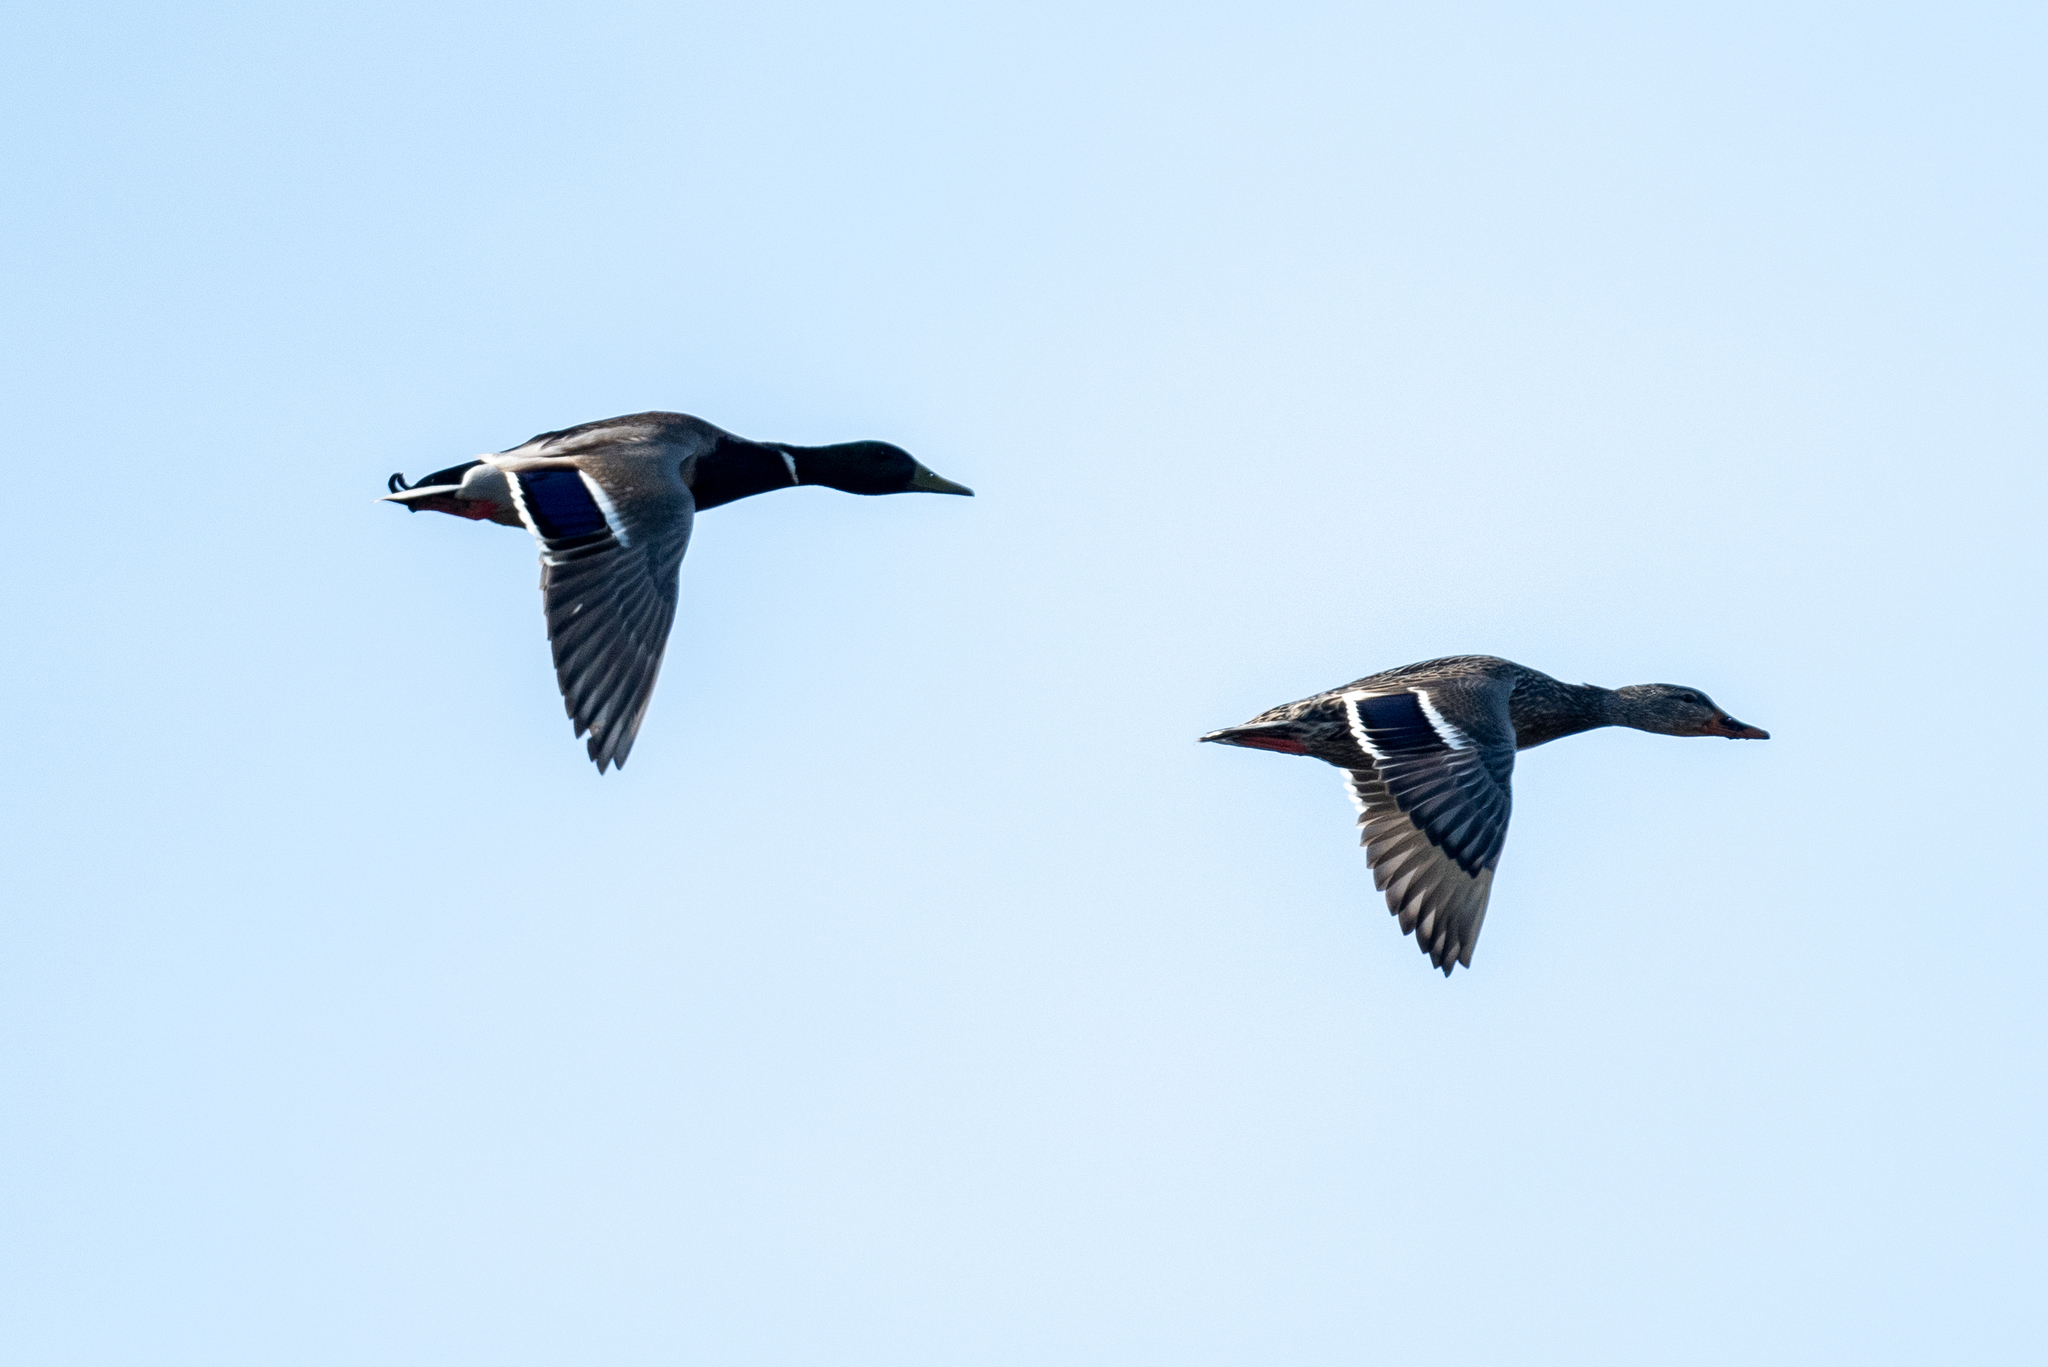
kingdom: Animalia
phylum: Chordata
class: Aves
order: Anseriformes
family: Anatidae
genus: Anas
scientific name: Anas platyrhynchos
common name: Mallard
